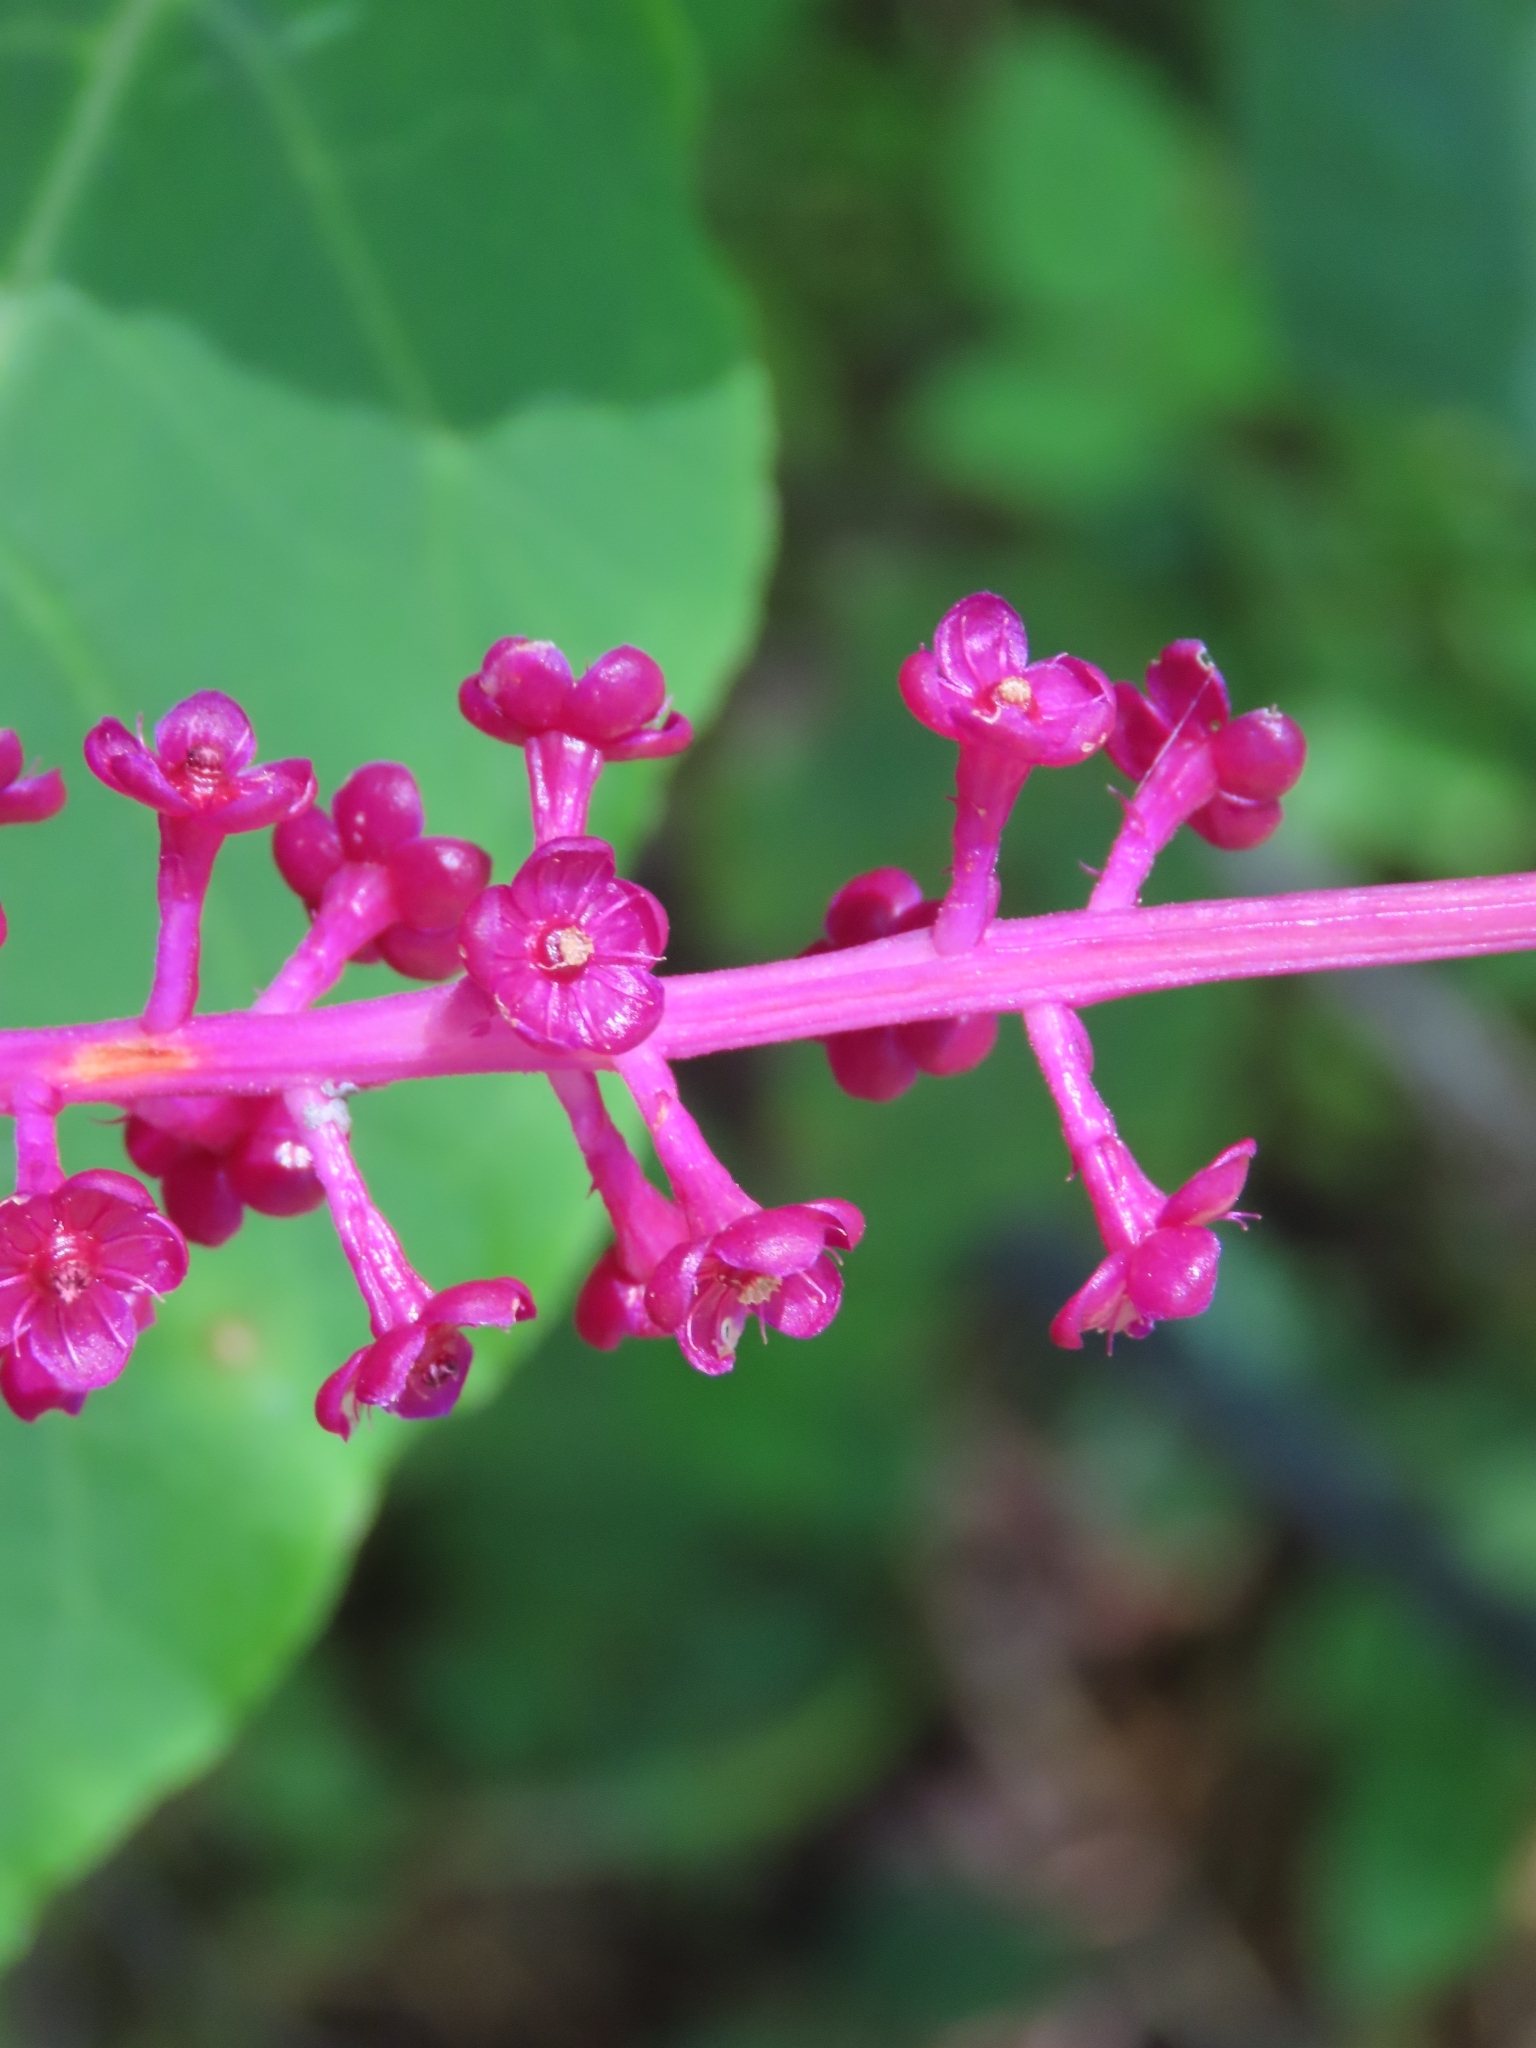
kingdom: Plantae
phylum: Tracheophyta
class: Magnoliopsida
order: Caryophyllales
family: Phytolaccaceae
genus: Phytolacca
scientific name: Phytolacca americana
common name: American pokeweed
